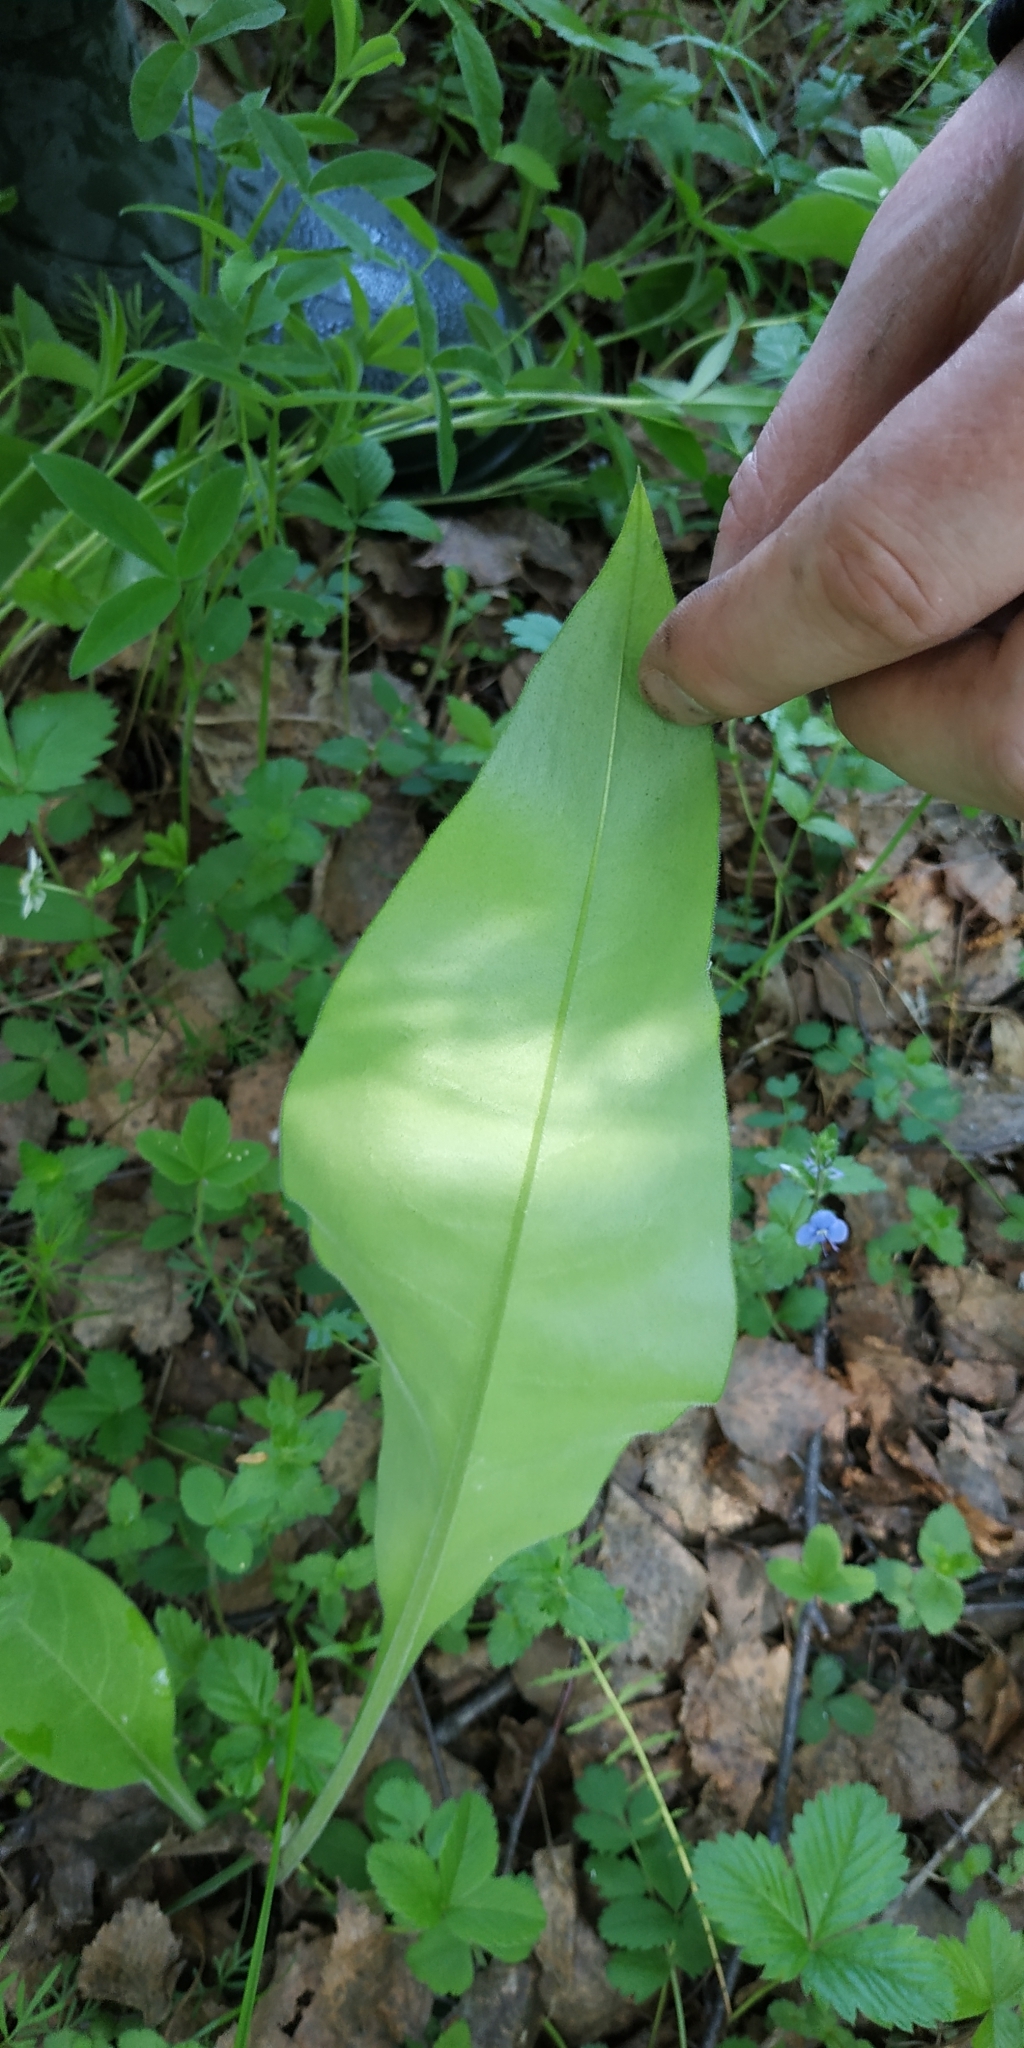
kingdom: Plantae
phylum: Tracheophyta
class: Magnoliopsida
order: Boraginales
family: Boraginaceae
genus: Pulmonaria
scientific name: Pulmonaria mollis
